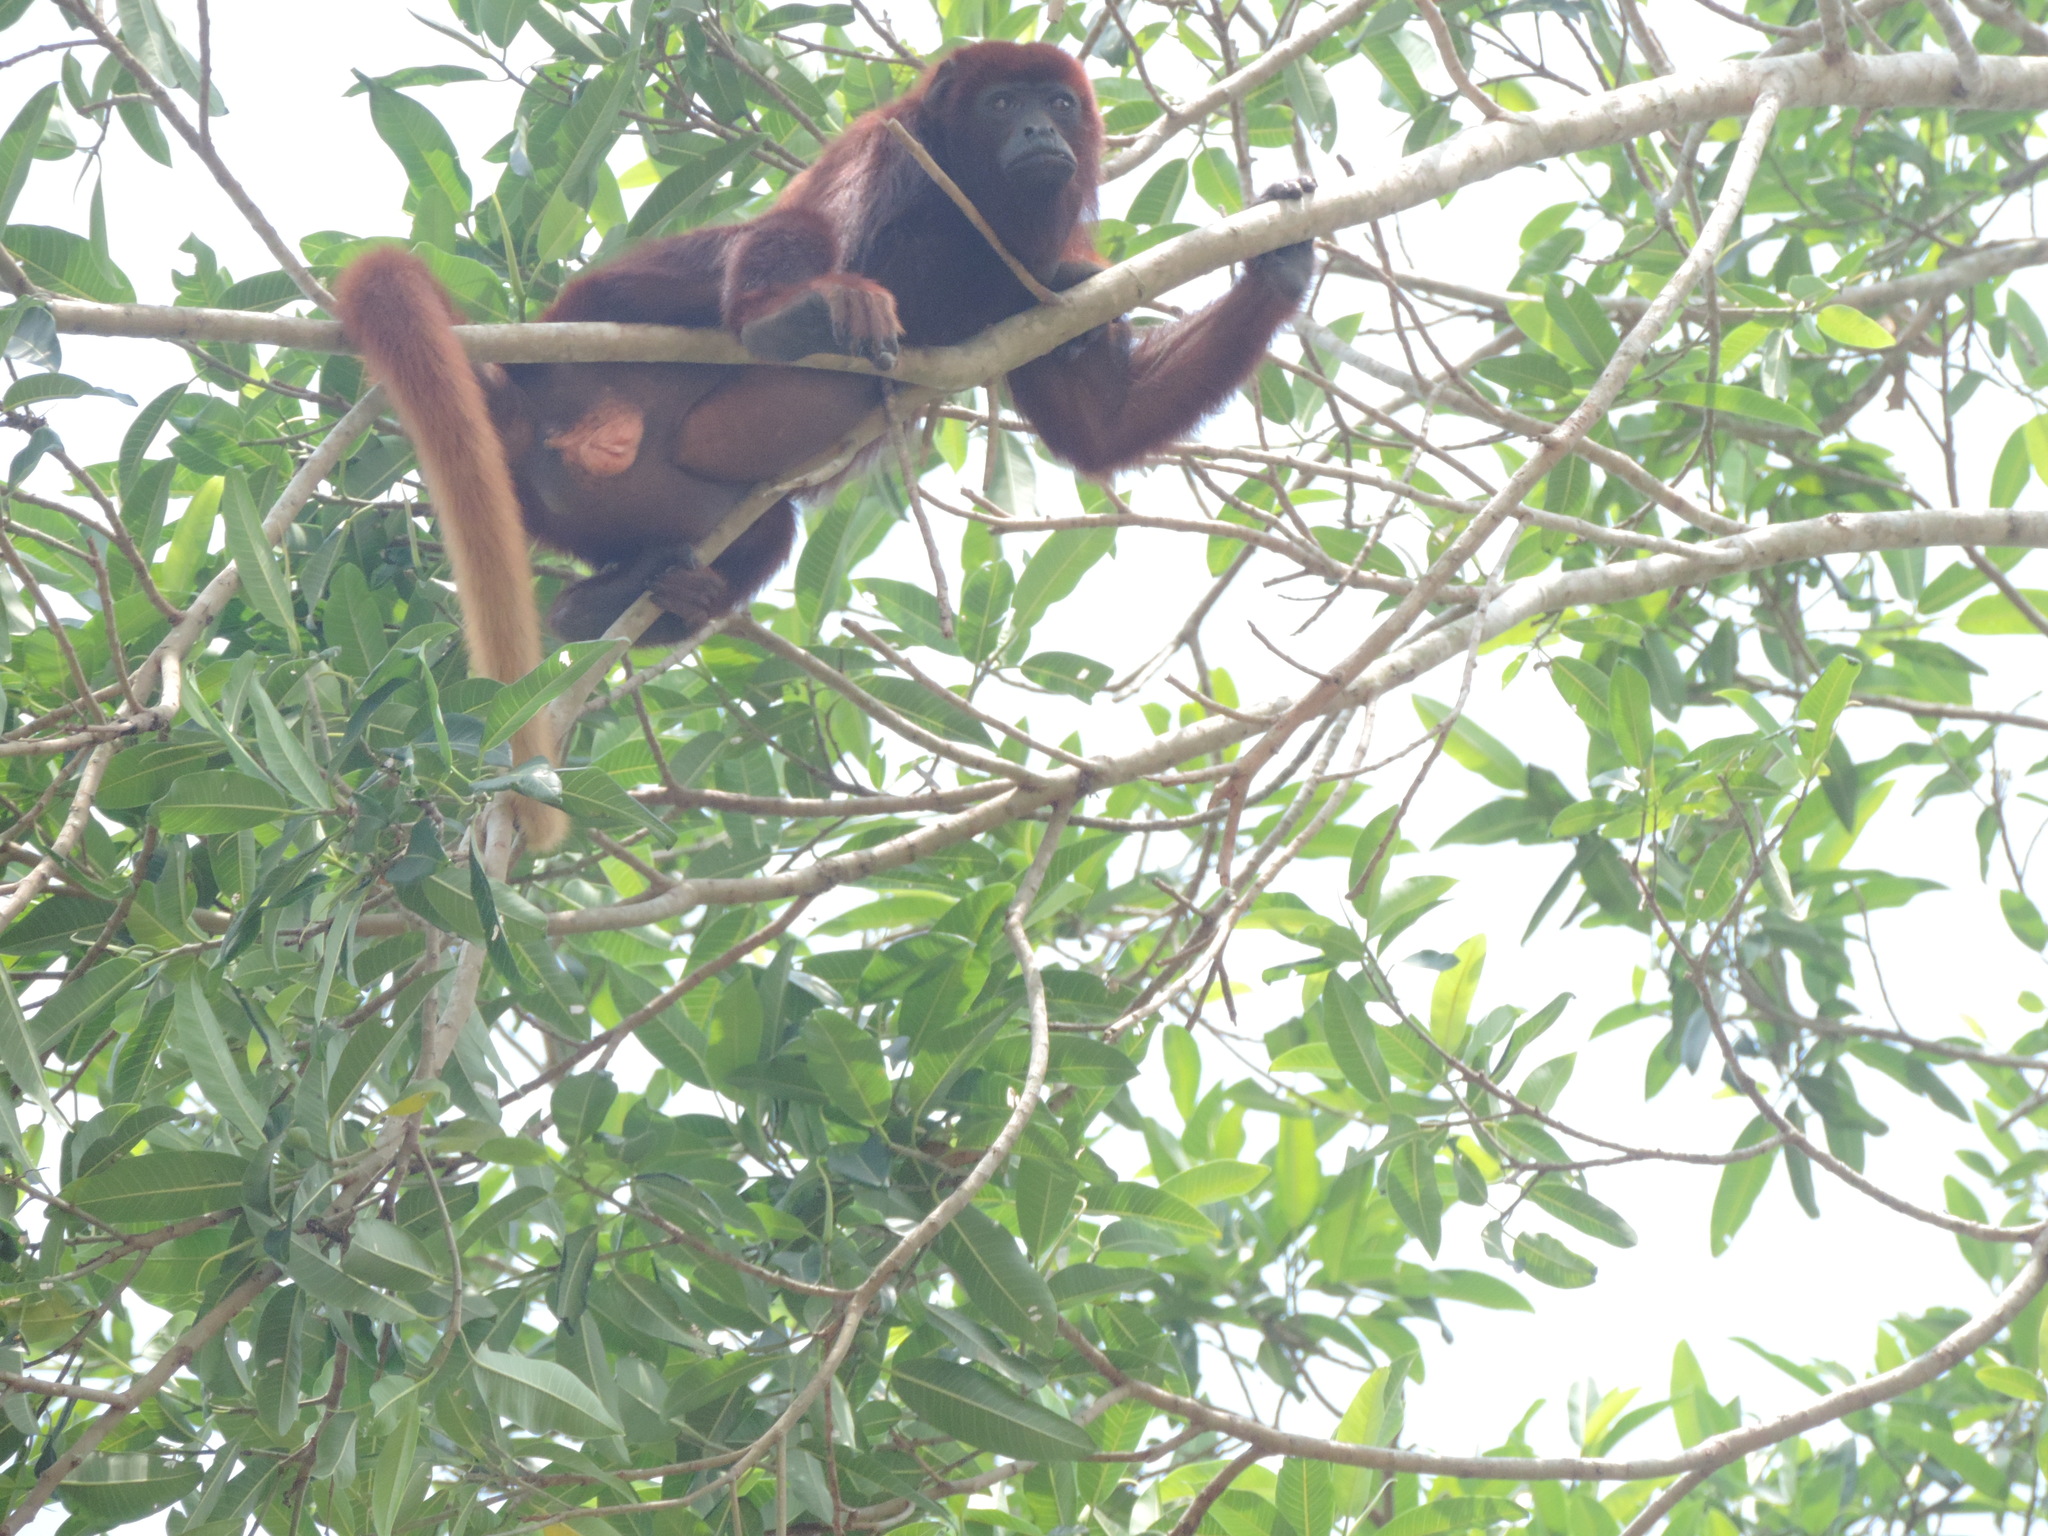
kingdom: Animalia
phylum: Chordata
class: Mammalia
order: Primates
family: Atelidae
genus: Alouatta
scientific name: Alouatta seniculus
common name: Venezuelan red howler
